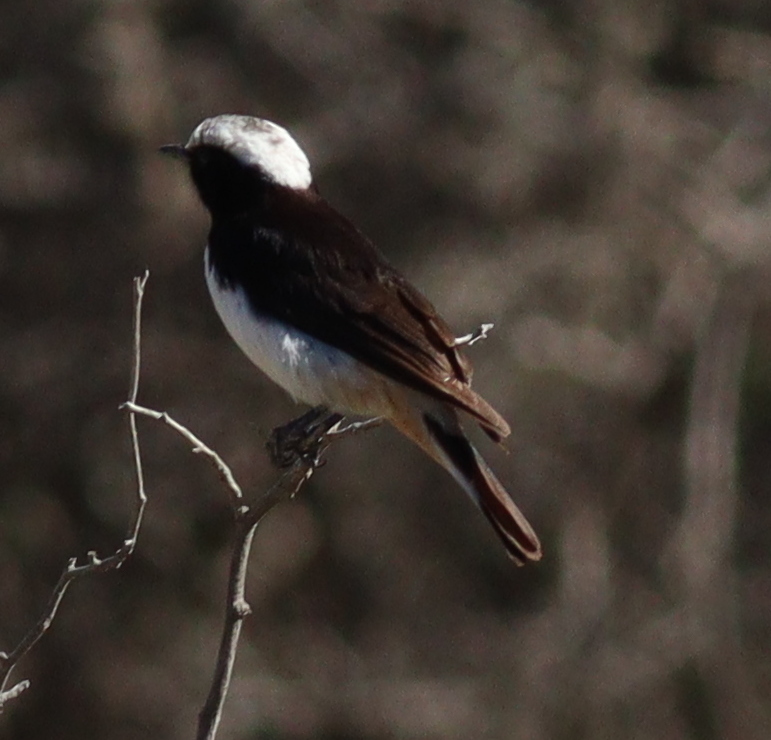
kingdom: Animalia
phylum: Chordata
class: Aves
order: Passeriformes
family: Muscicapidae
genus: Oenanthe
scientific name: Oenanthe lugentoides
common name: Arabian wheatear
